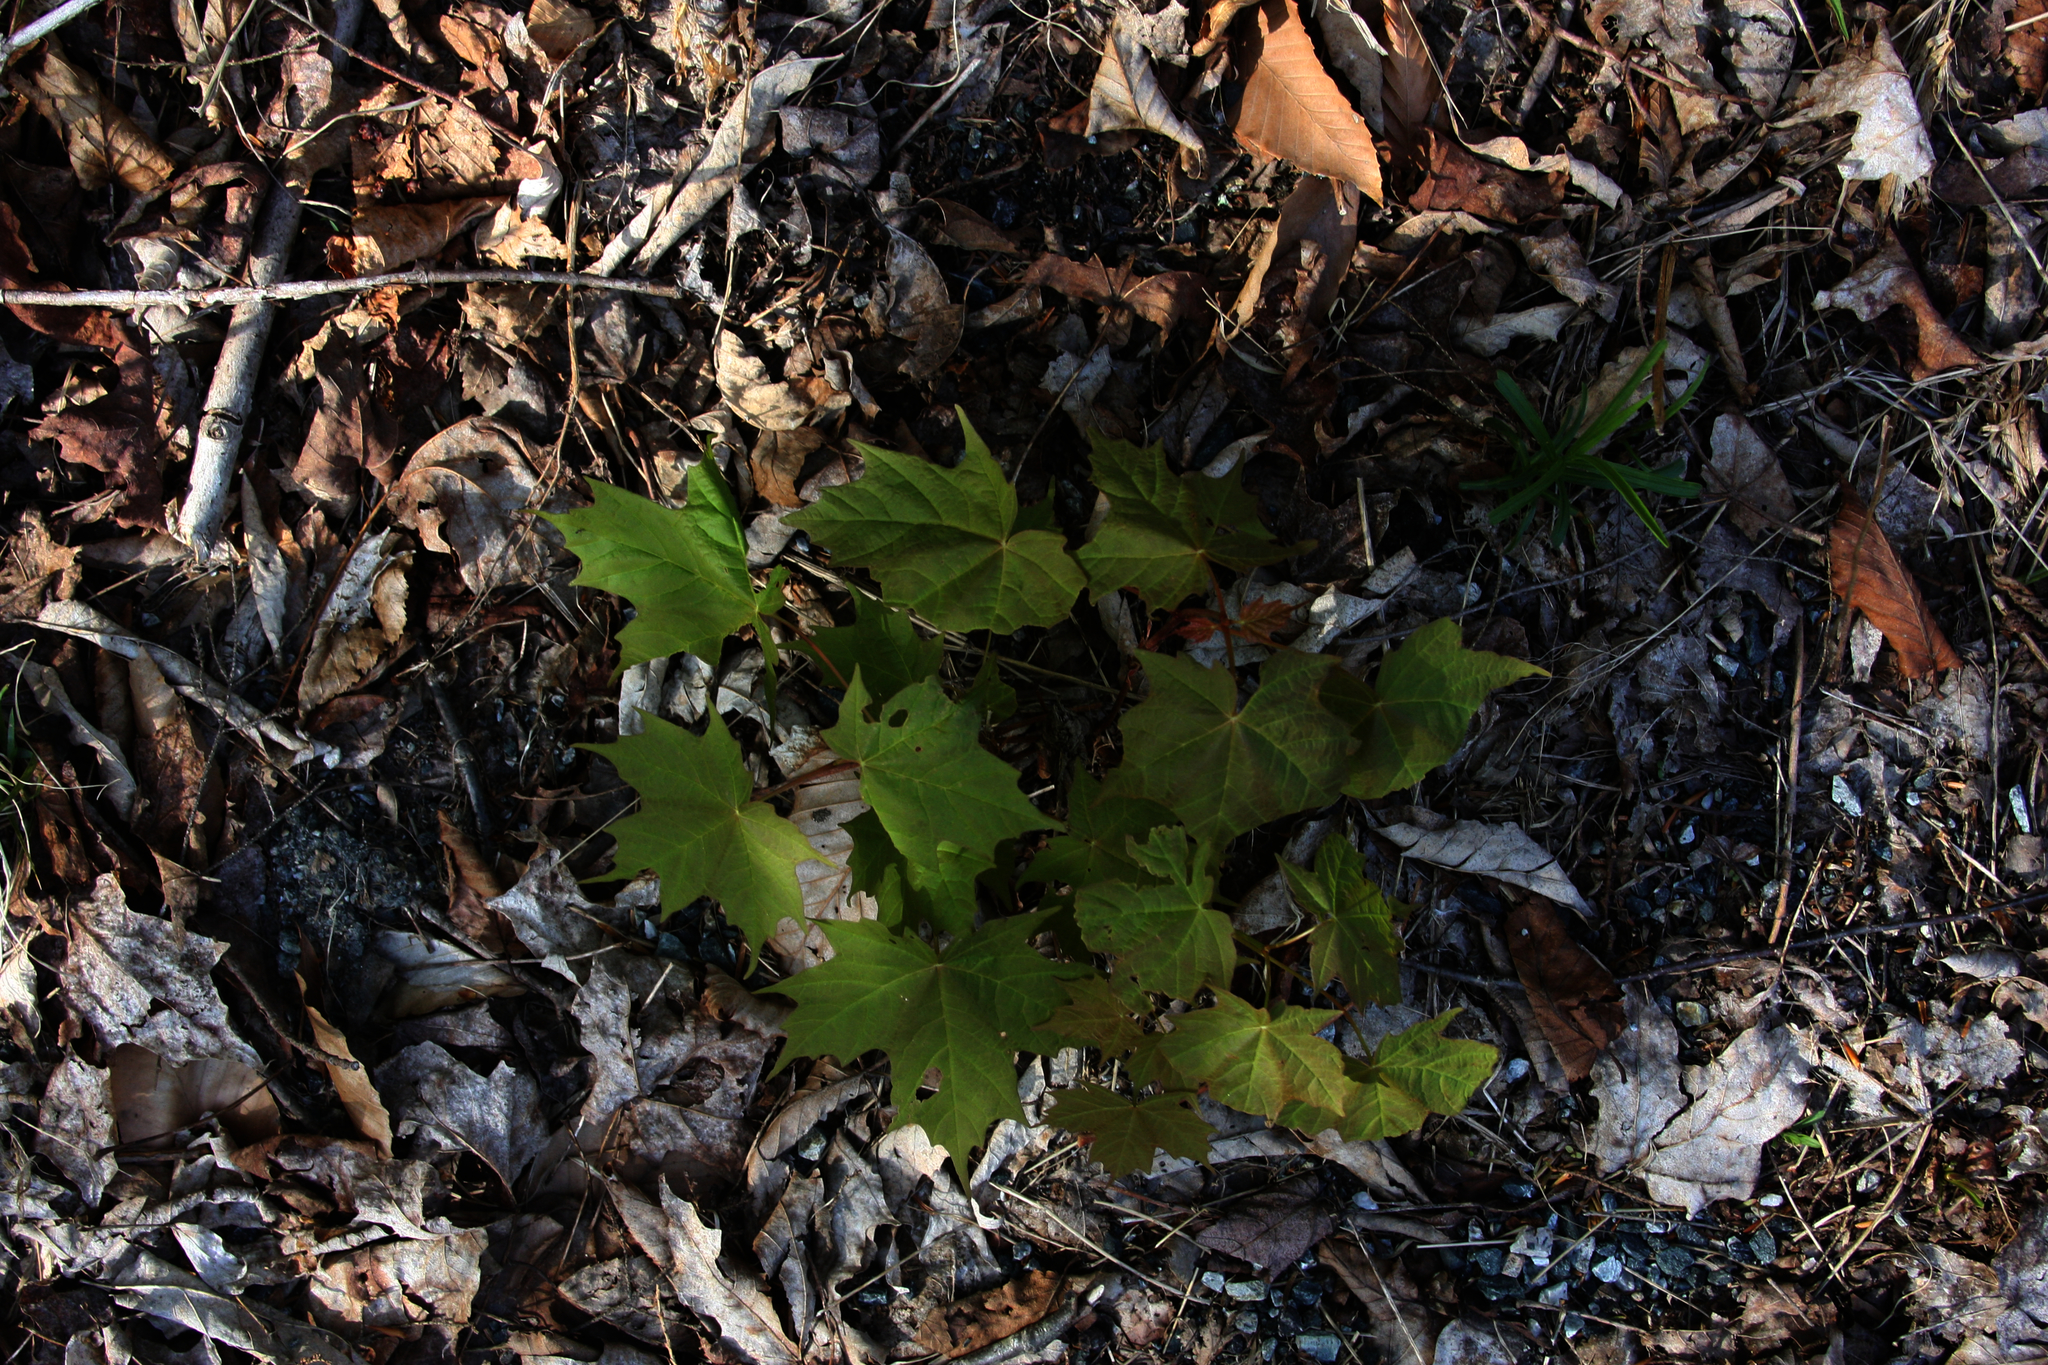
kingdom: Plantae
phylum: Tracheophyta
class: Magnoliopsida
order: Sapindales
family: Sapindaceae
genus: Acer
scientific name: Acer saccharum
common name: Sugar maple
